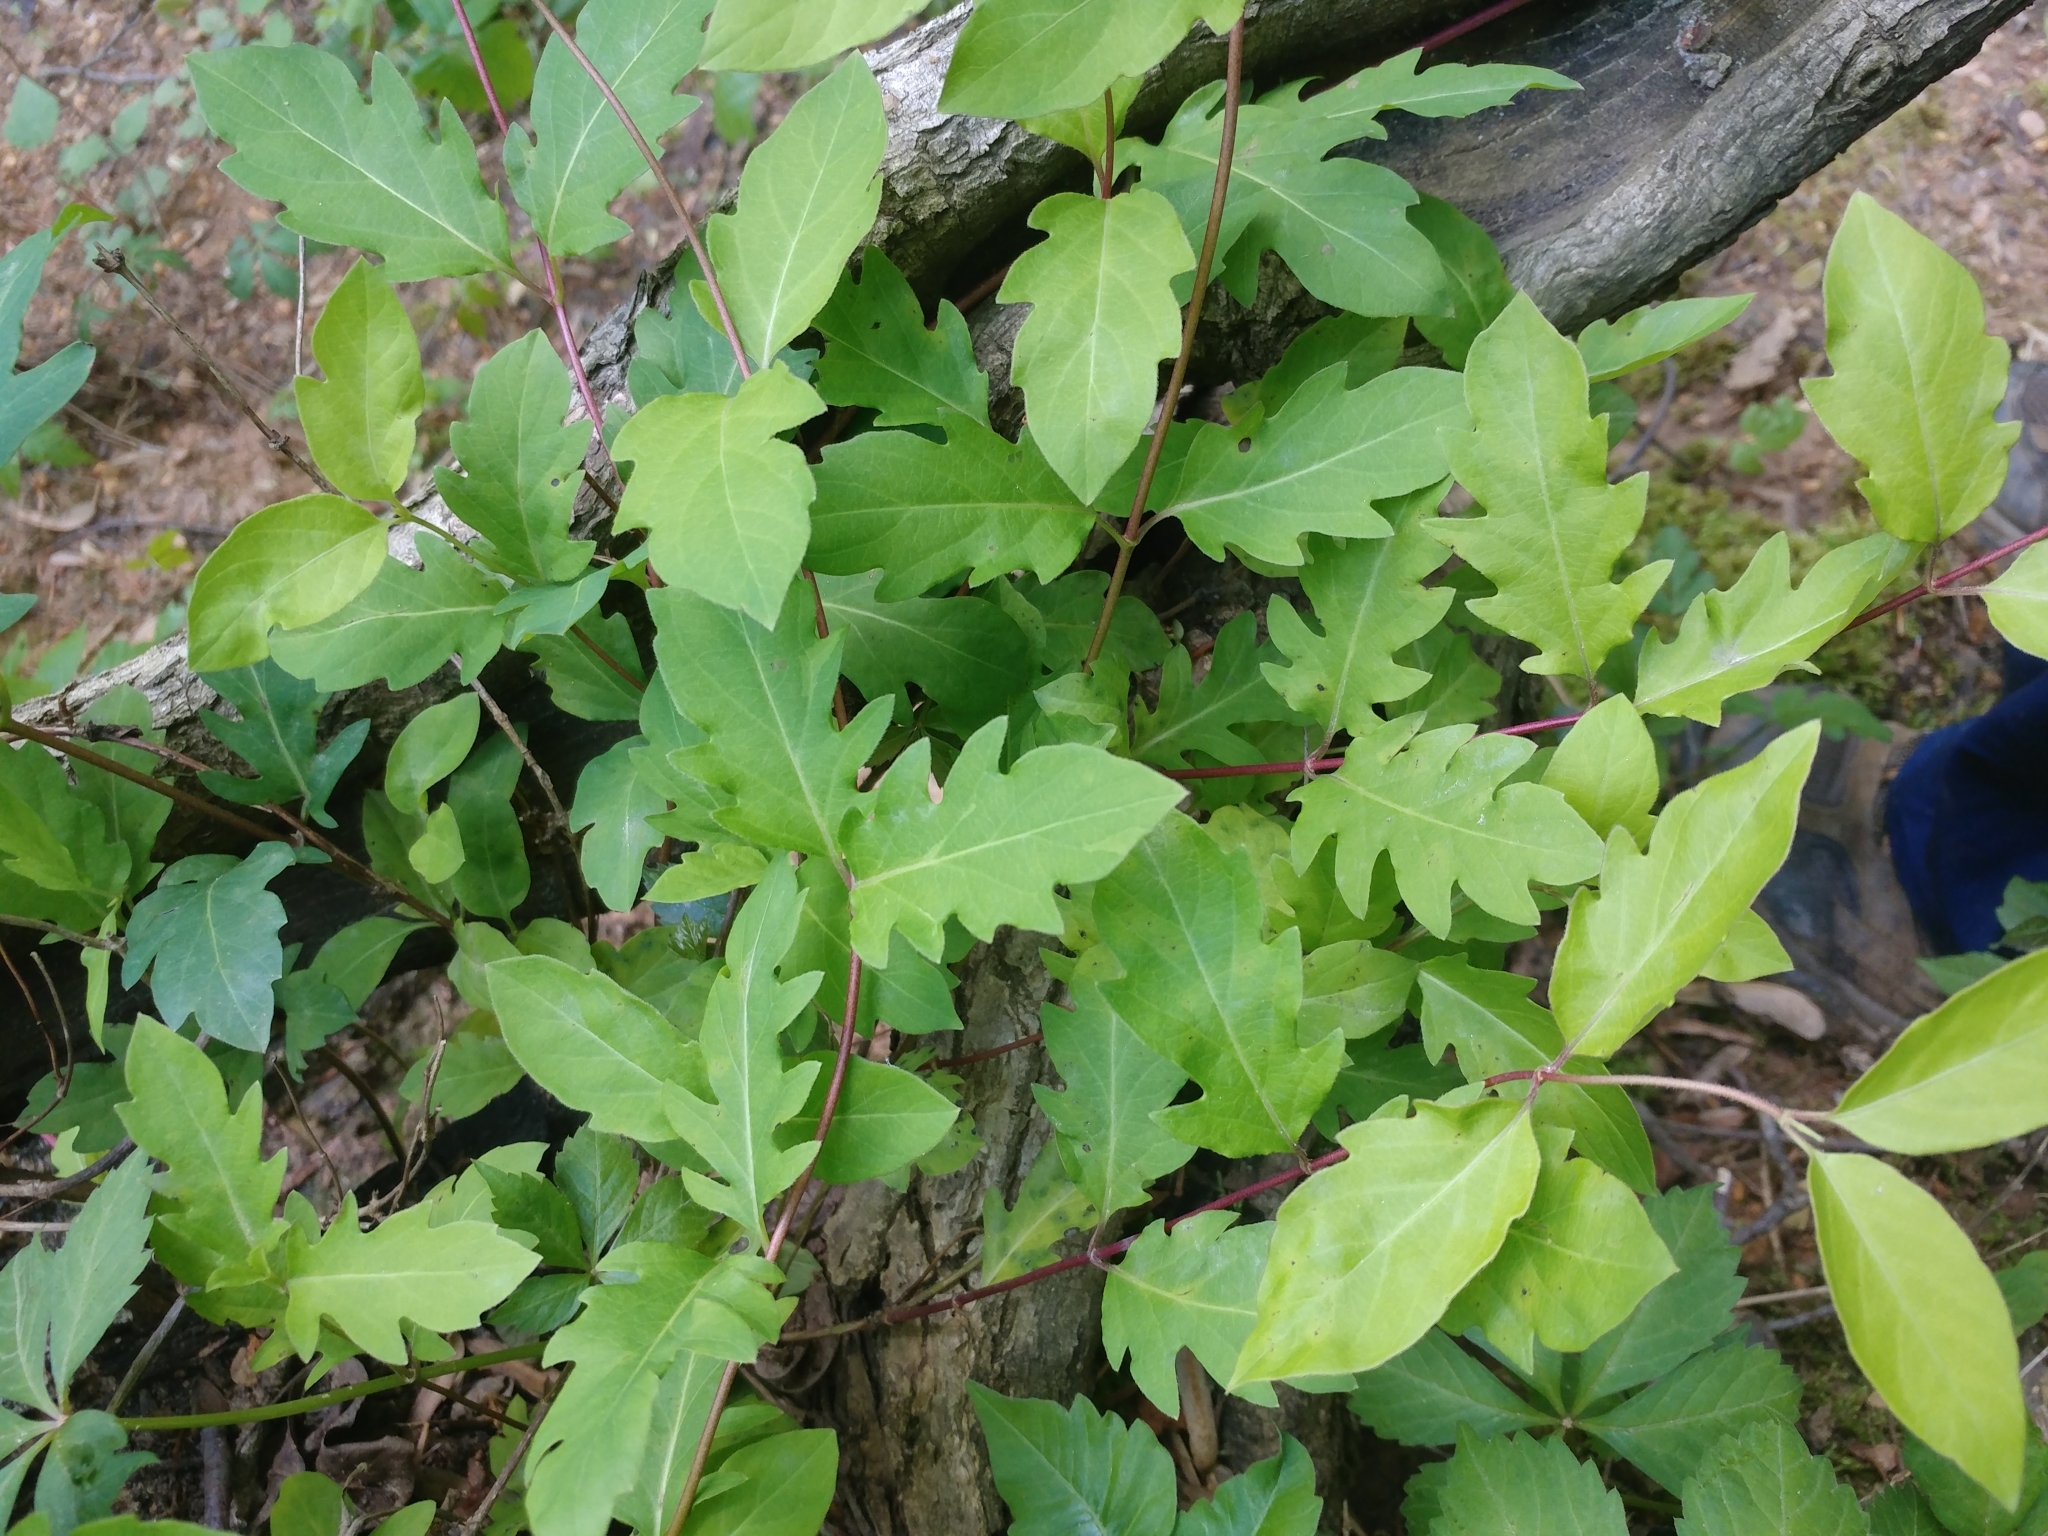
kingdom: Plantae
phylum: Tracheophyta
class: Magnoliopsida
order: Dipsacales
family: Caprifoliaceae
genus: Lonicera
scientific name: Lonicera japonica
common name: Japanese honeysuckle
